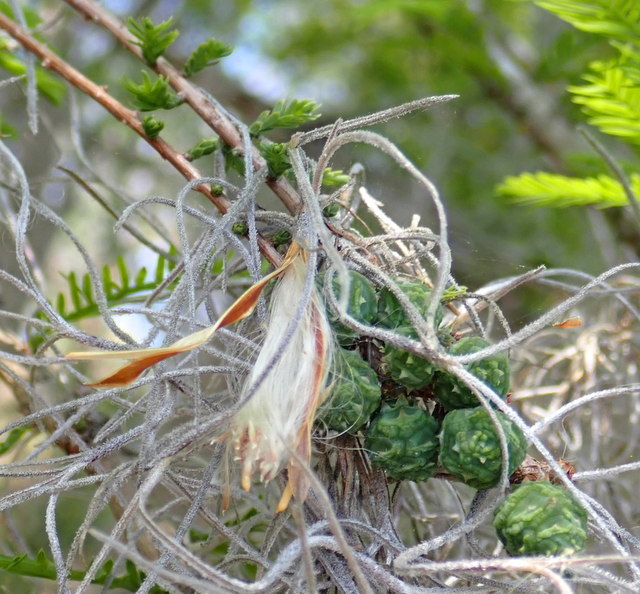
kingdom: Plantae
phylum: Tracheophyta
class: Liliopsida
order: Poales
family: Bromeliaceae
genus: Tillandsia
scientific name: Tillandsia usneoides
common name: Spanish moss
